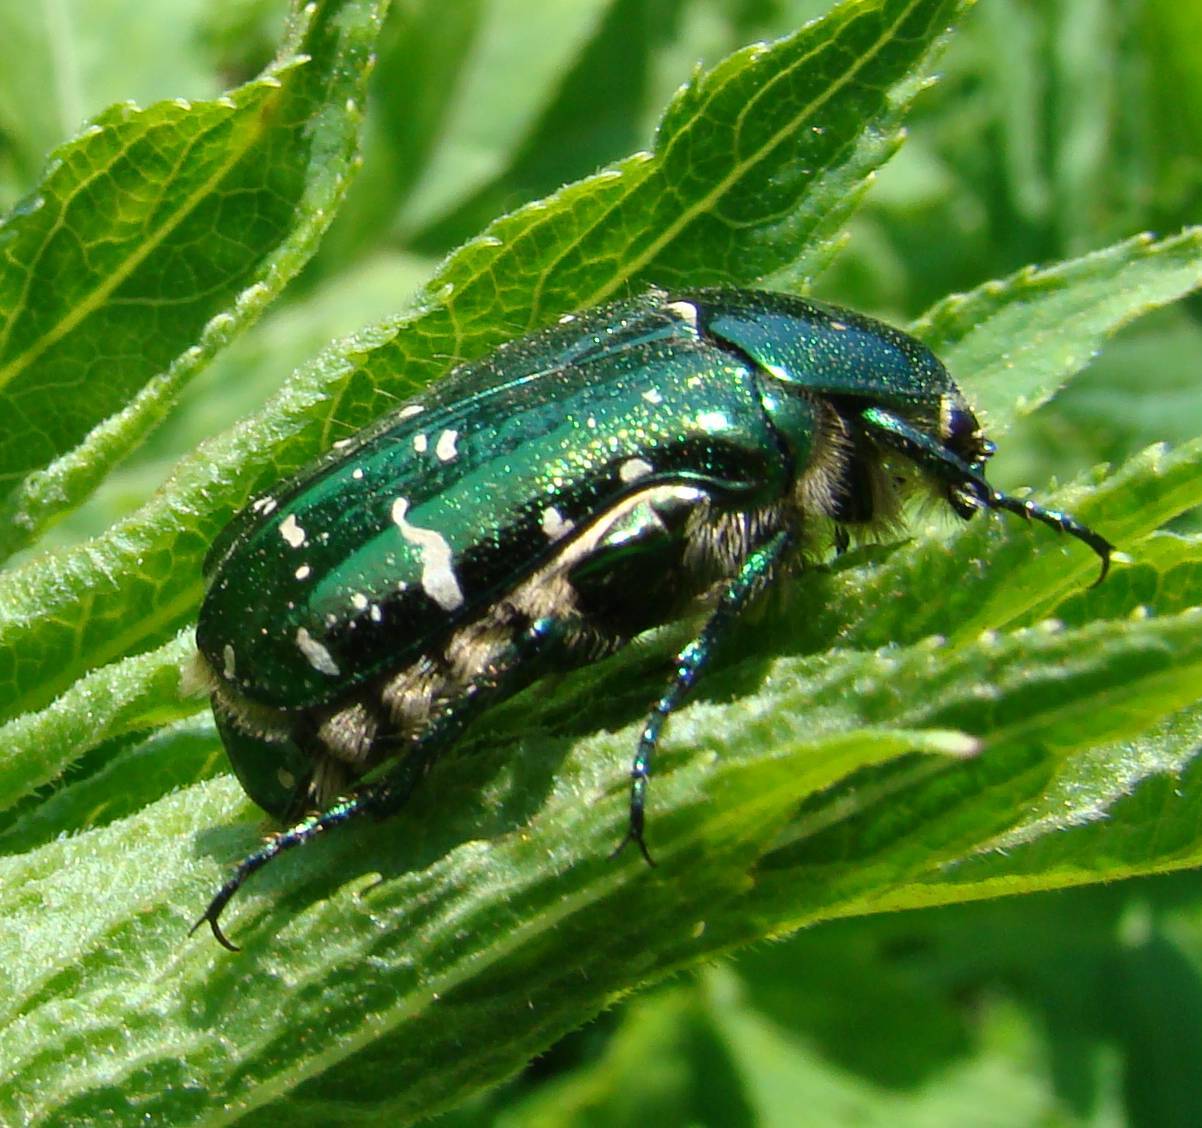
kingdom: Animalia
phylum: Arthropoda
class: Insecta
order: Coleoptera
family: Scarabaeidae
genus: Cetonia
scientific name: Cetonia aurata
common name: Rose chafer
